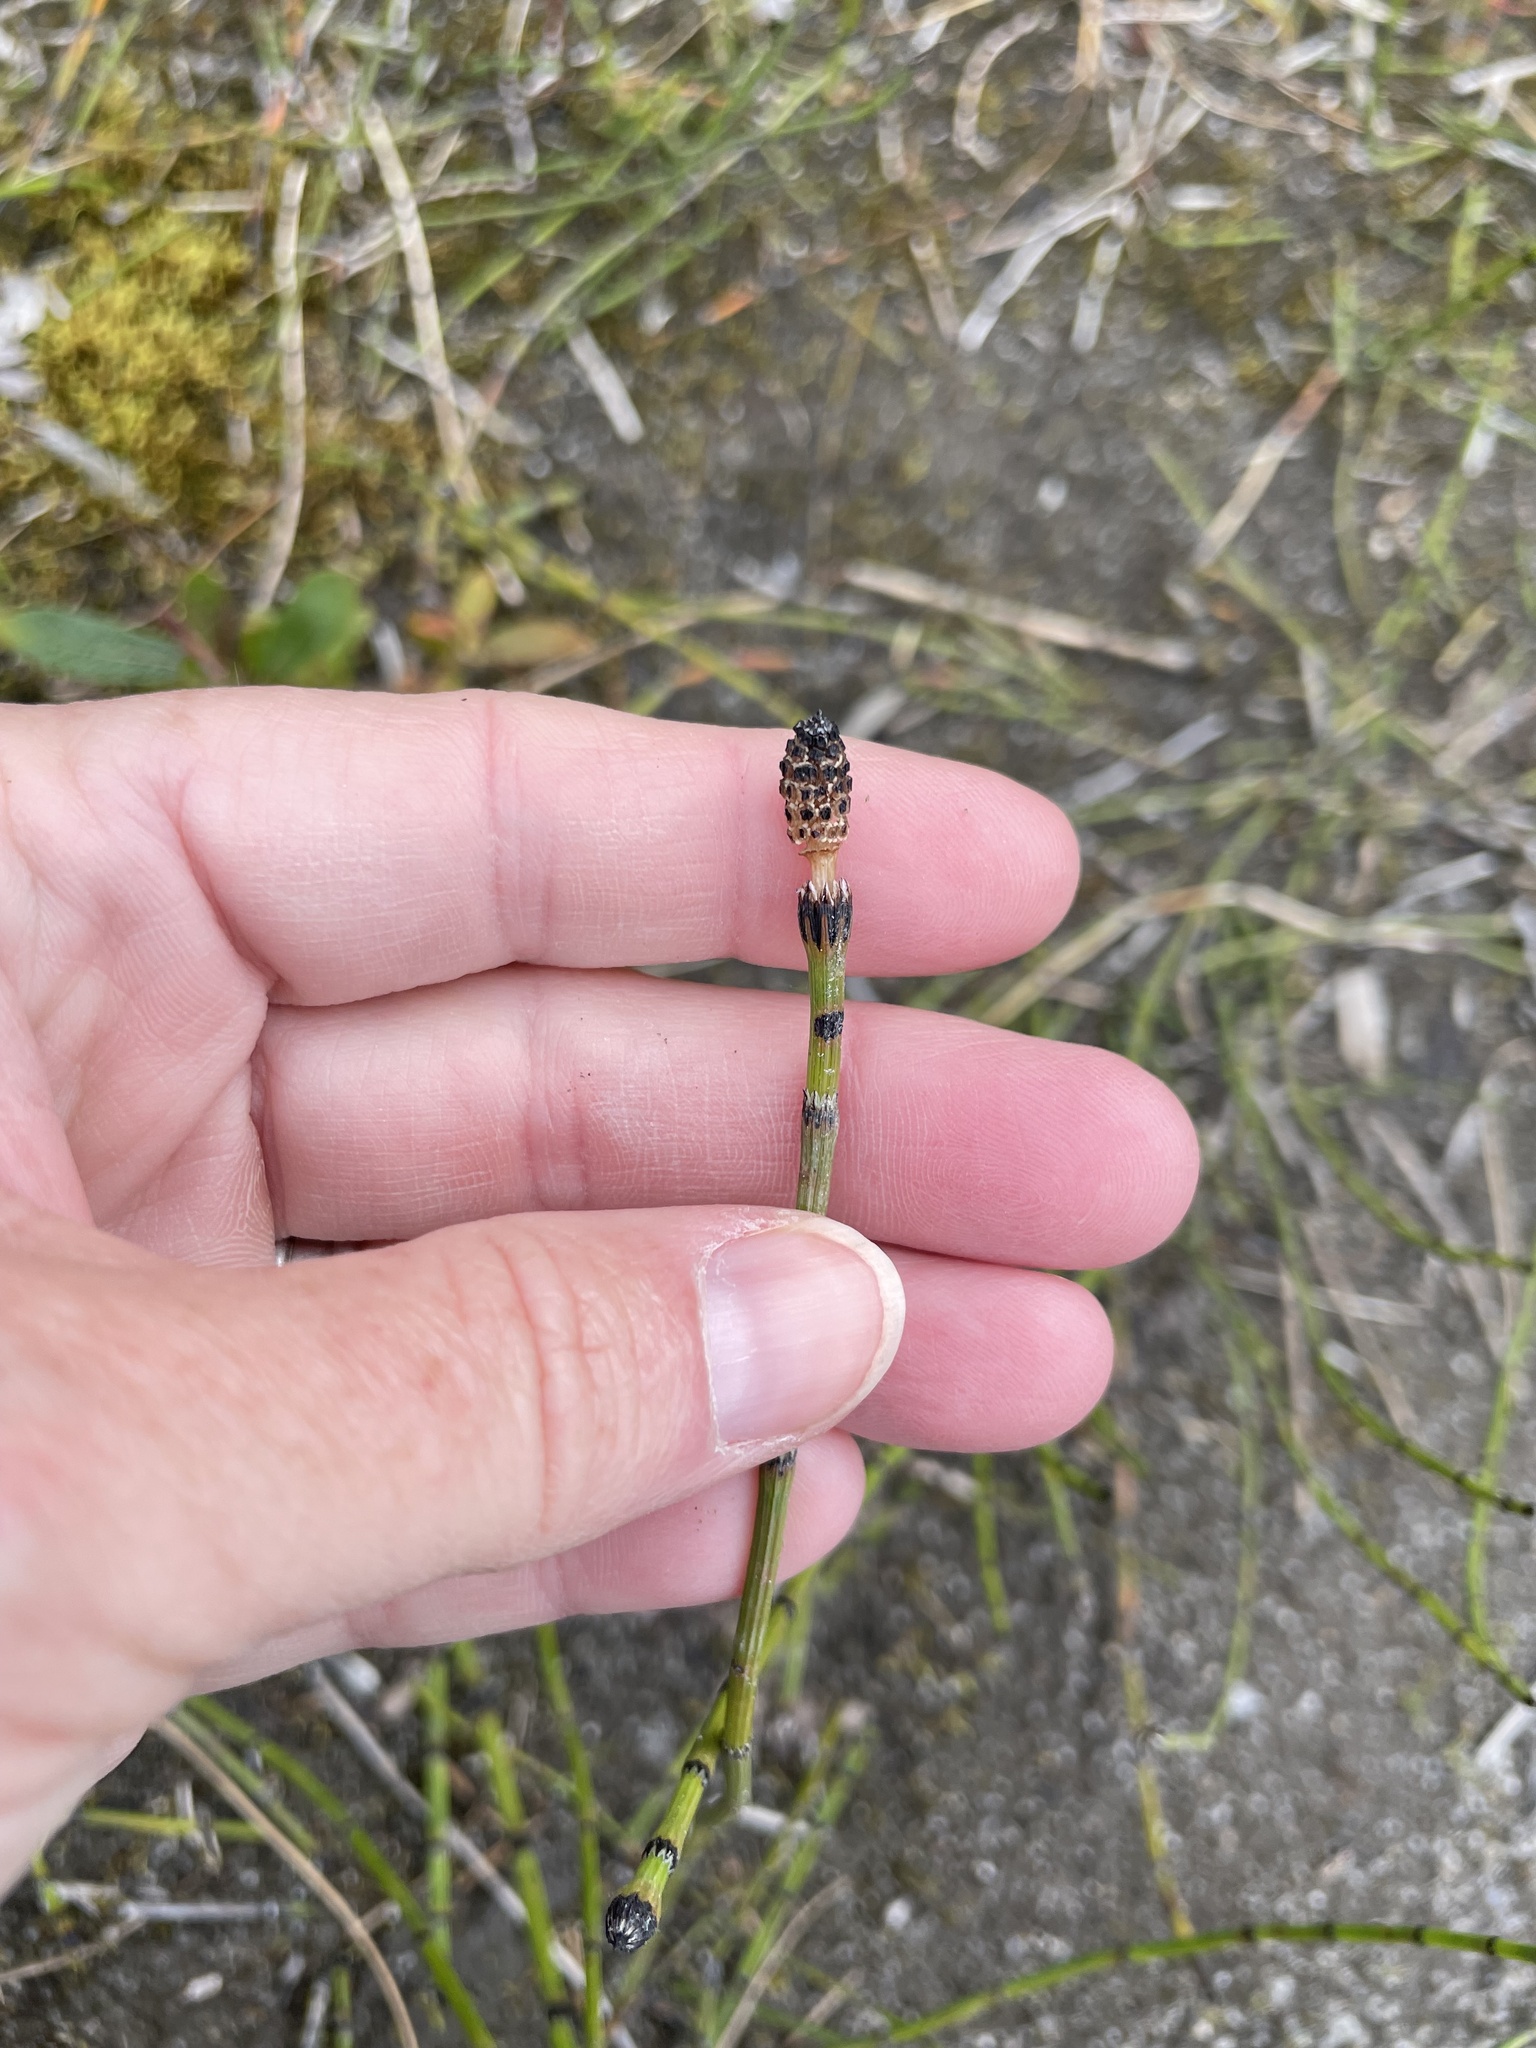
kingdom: Plantae
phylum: Tracheophyta
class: Polypodiopsida
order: Equisetales
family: Equisetaceae
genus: Equisetum
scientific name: Equisetum variegatum
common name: Variegated horsetail
